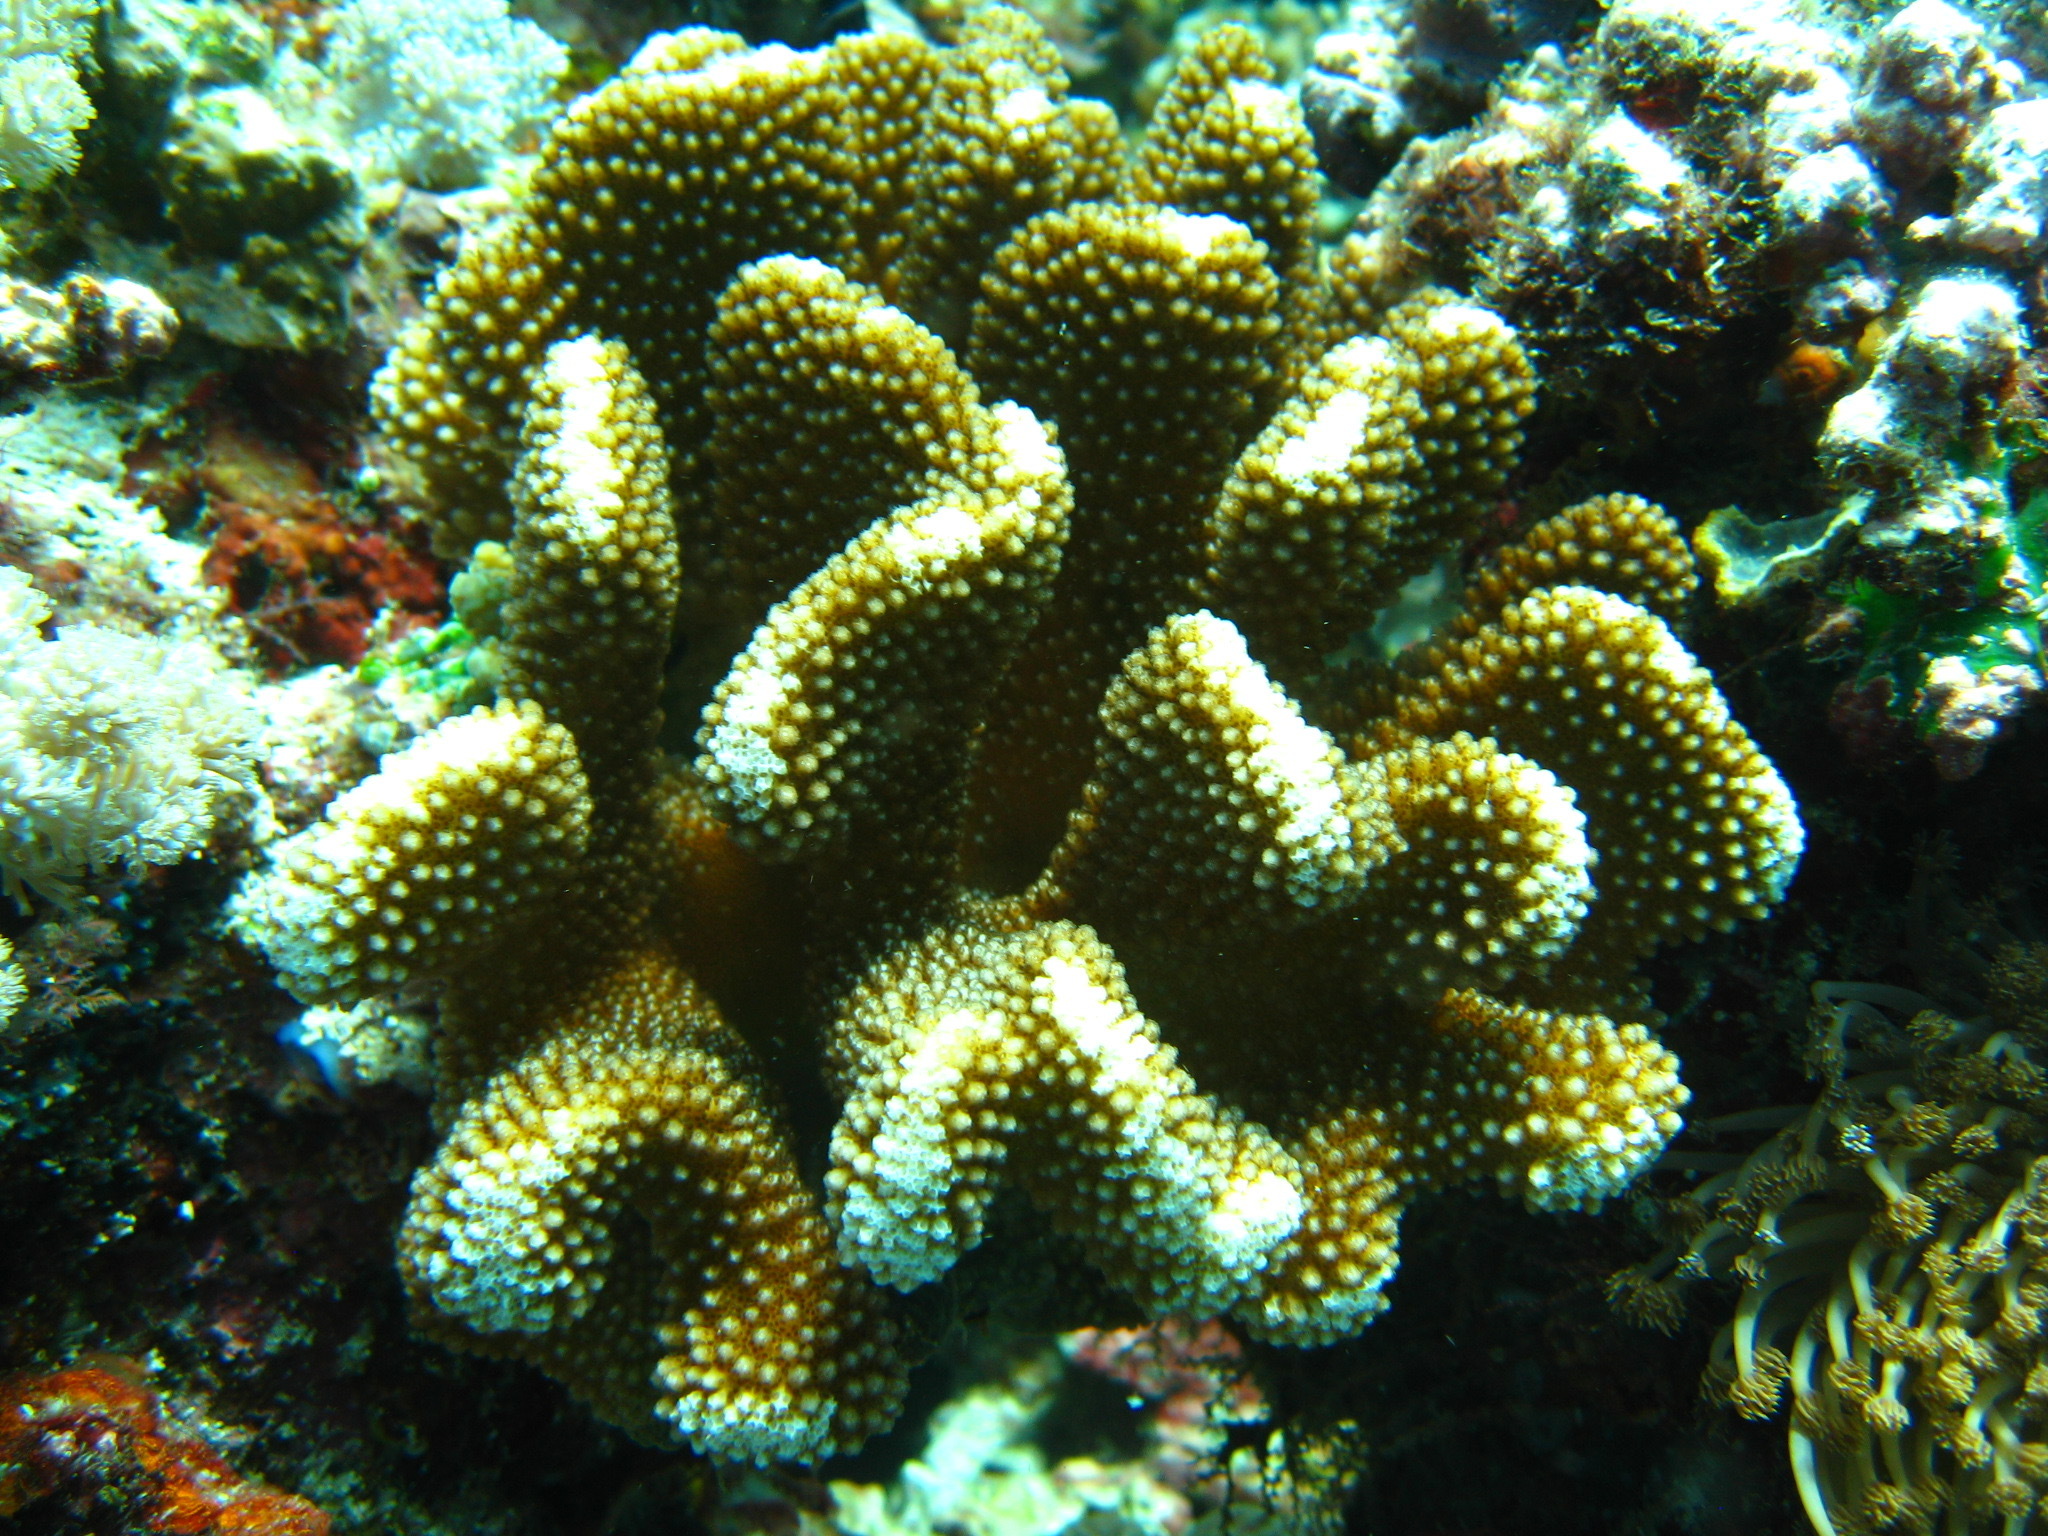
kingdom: Animalia
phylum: Cnidaria
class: Anthozoa
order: Scleractinia
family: Pocilloporidae
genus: Pocillopora
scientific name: Pocillopora meandrina
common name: Cauliflower coral
